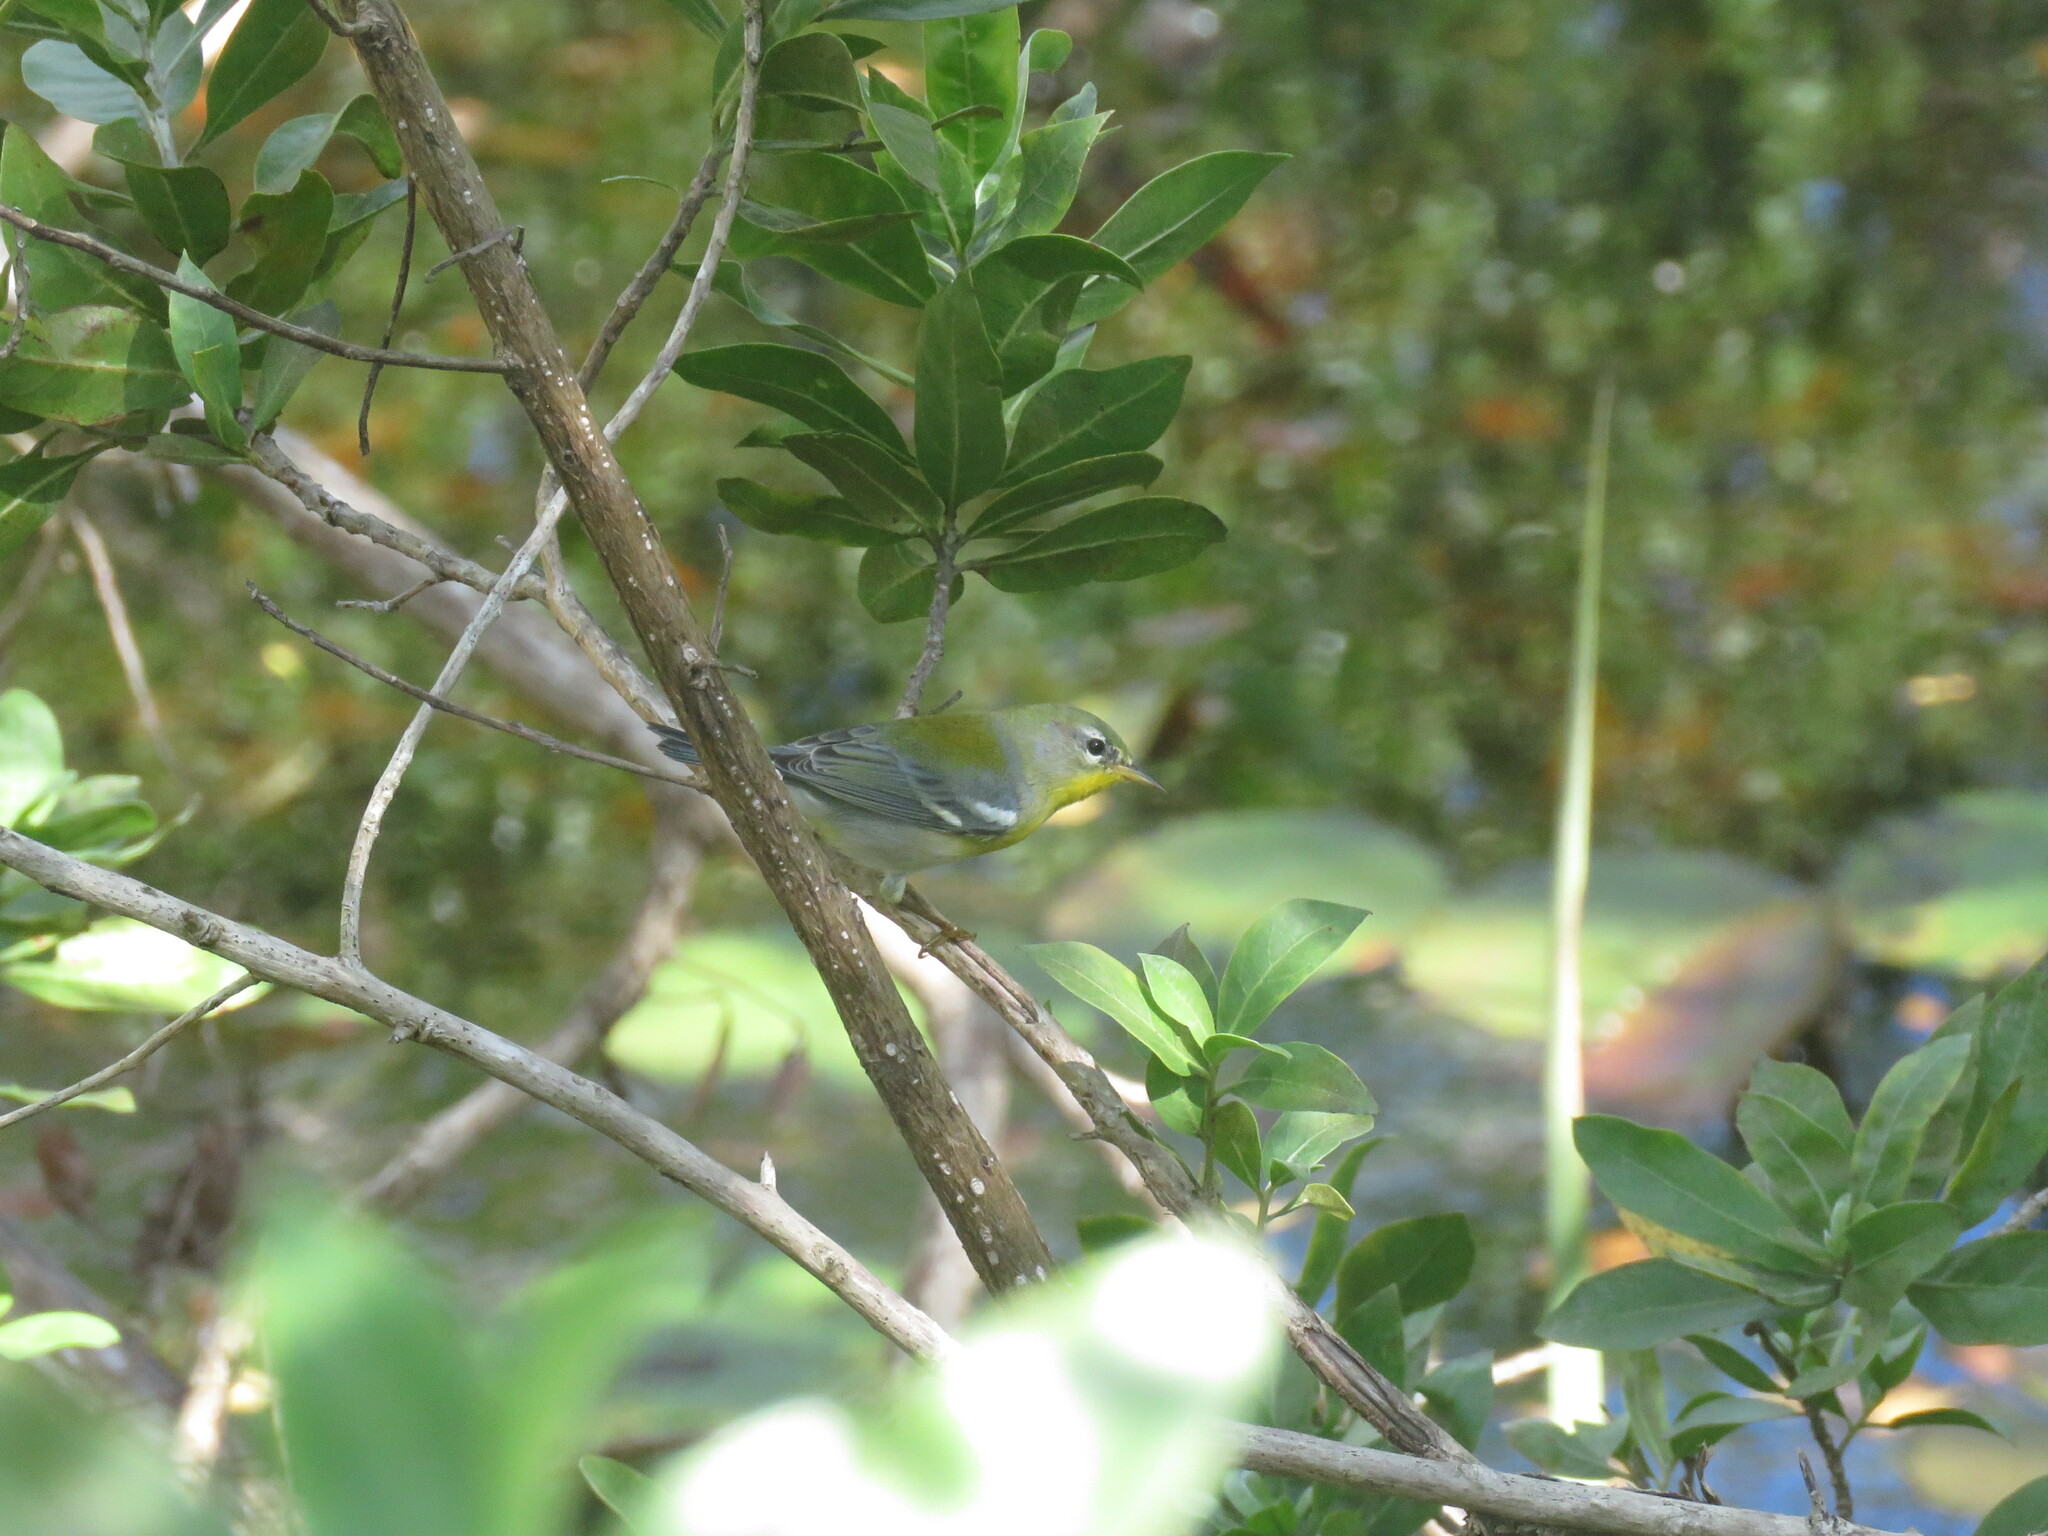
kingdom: Animalia
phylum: Chordata
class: Aves
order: Passeriformes
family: Parulidae
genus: Setophaga
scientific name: Setophaga americana
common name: Northern parula
